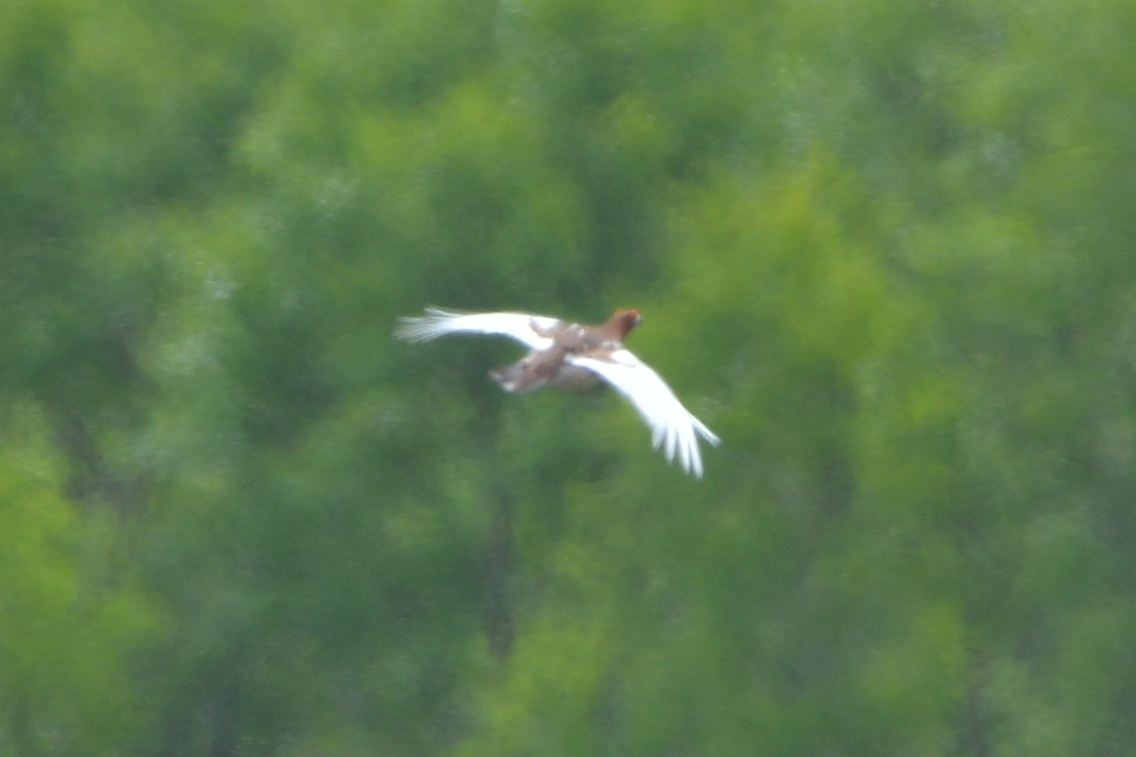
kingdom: Animalia
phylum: Chordata
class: Aves
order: Galliformes
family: Phasianidae
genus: Lagopus
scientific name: Lagopus lagopus
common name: Willow ptarmigan
